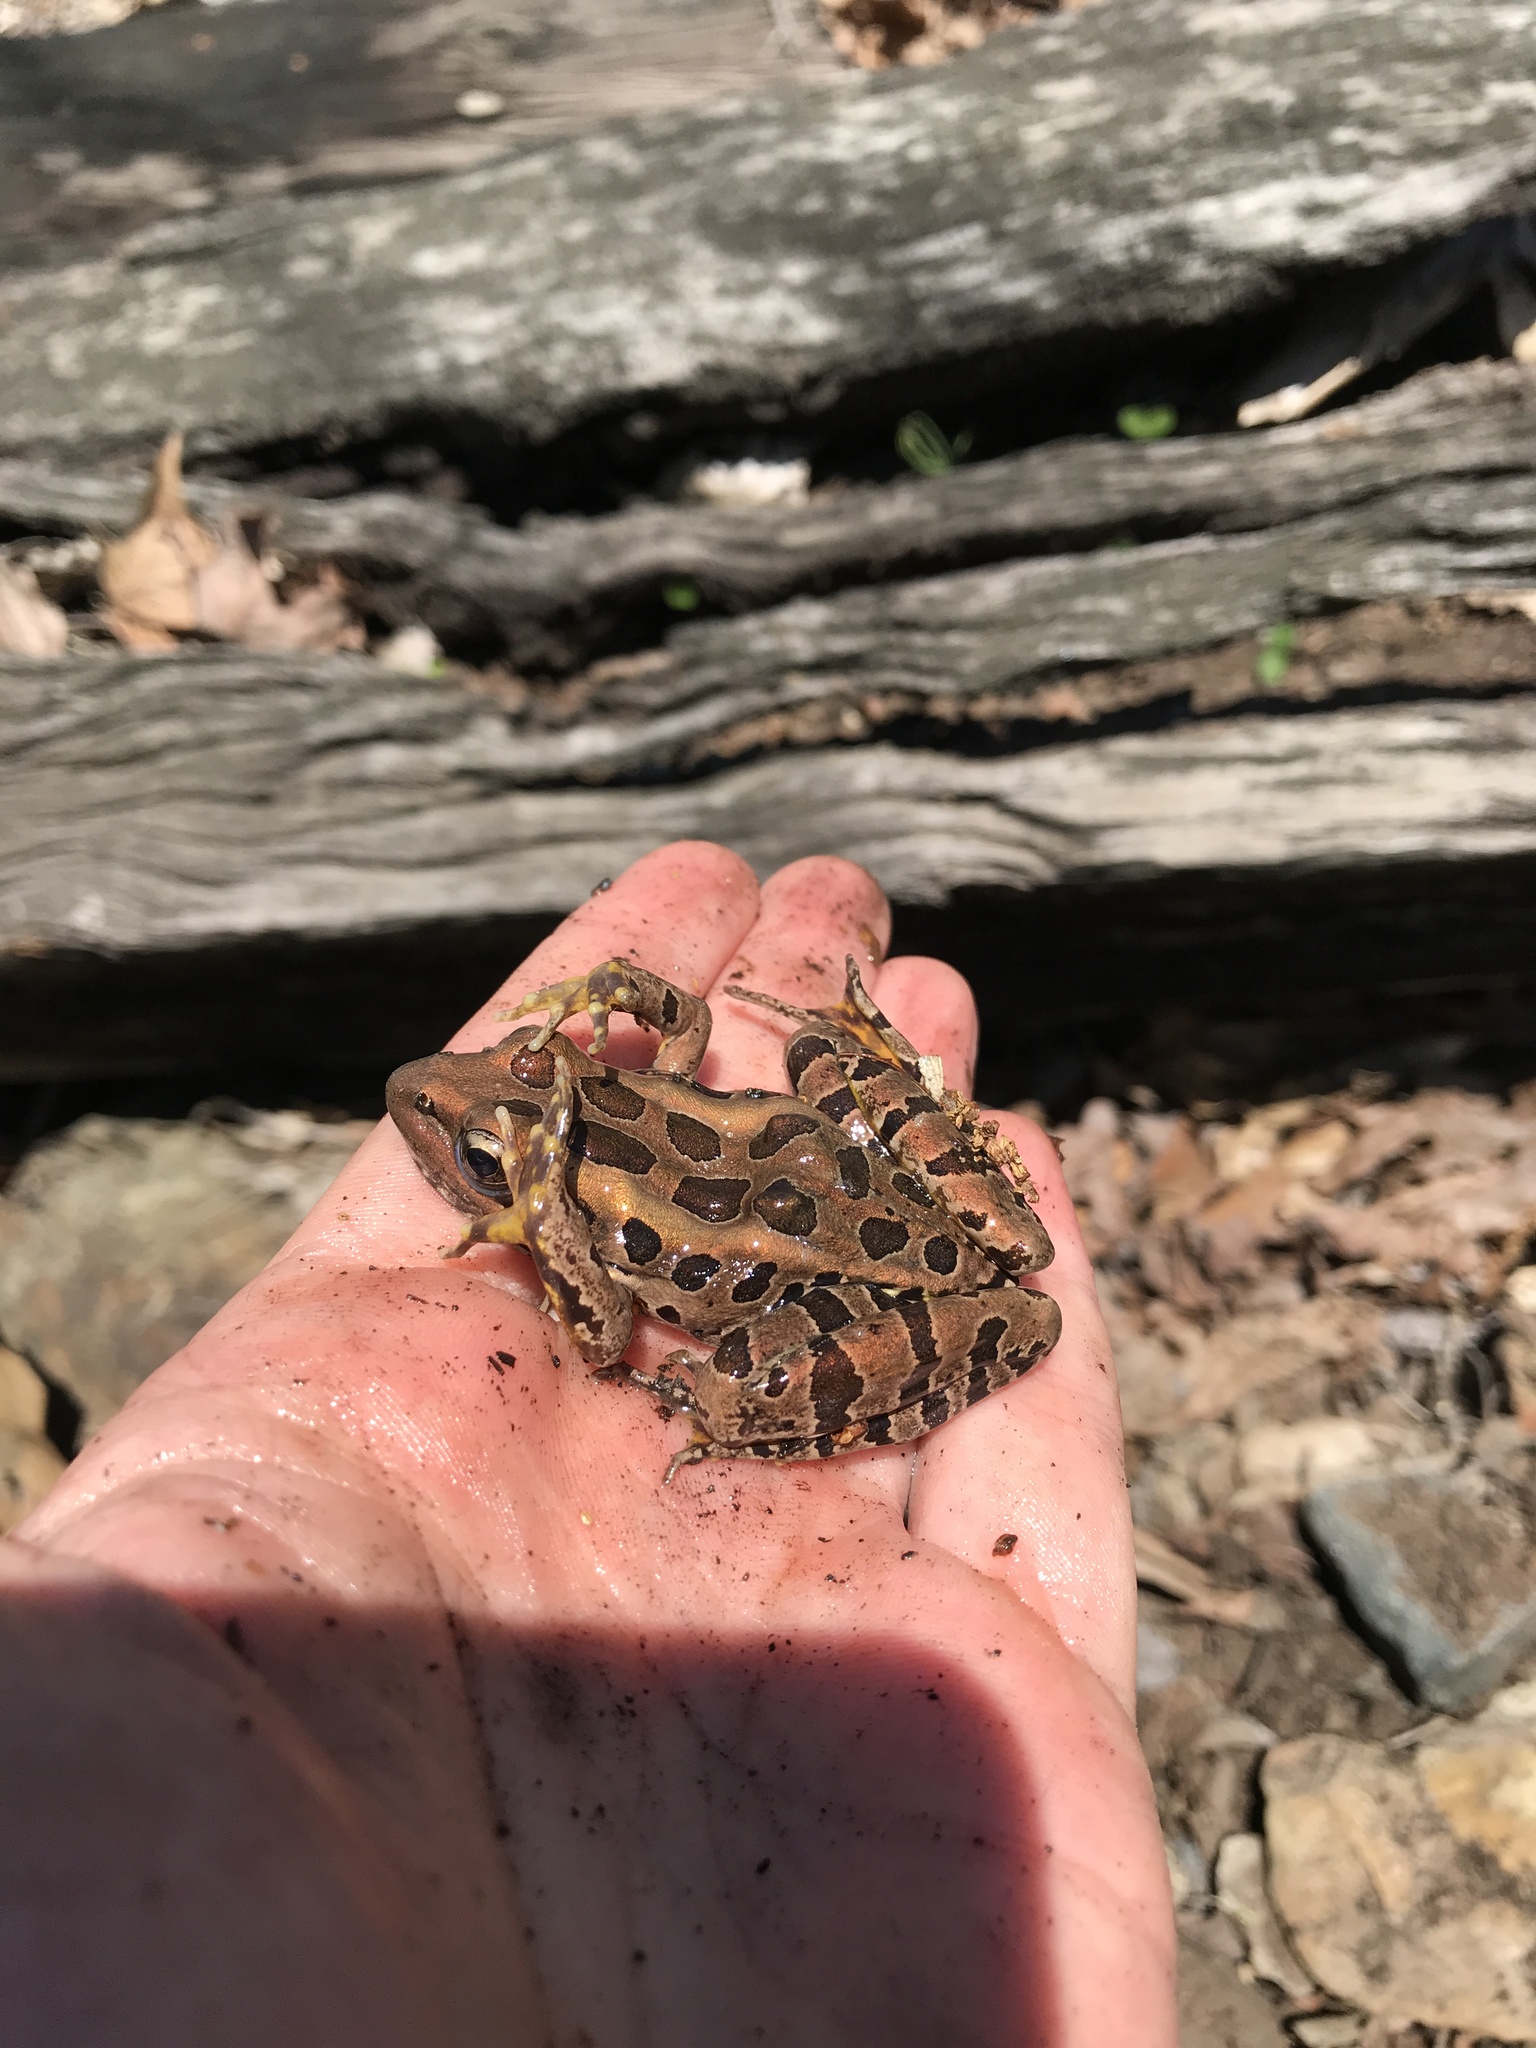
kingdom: Animalia
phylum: Chordata
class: Amphibia
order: Anura
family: Ranidae
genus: Lithobates
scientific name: Lithobates palustris
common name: Pickerel frog
